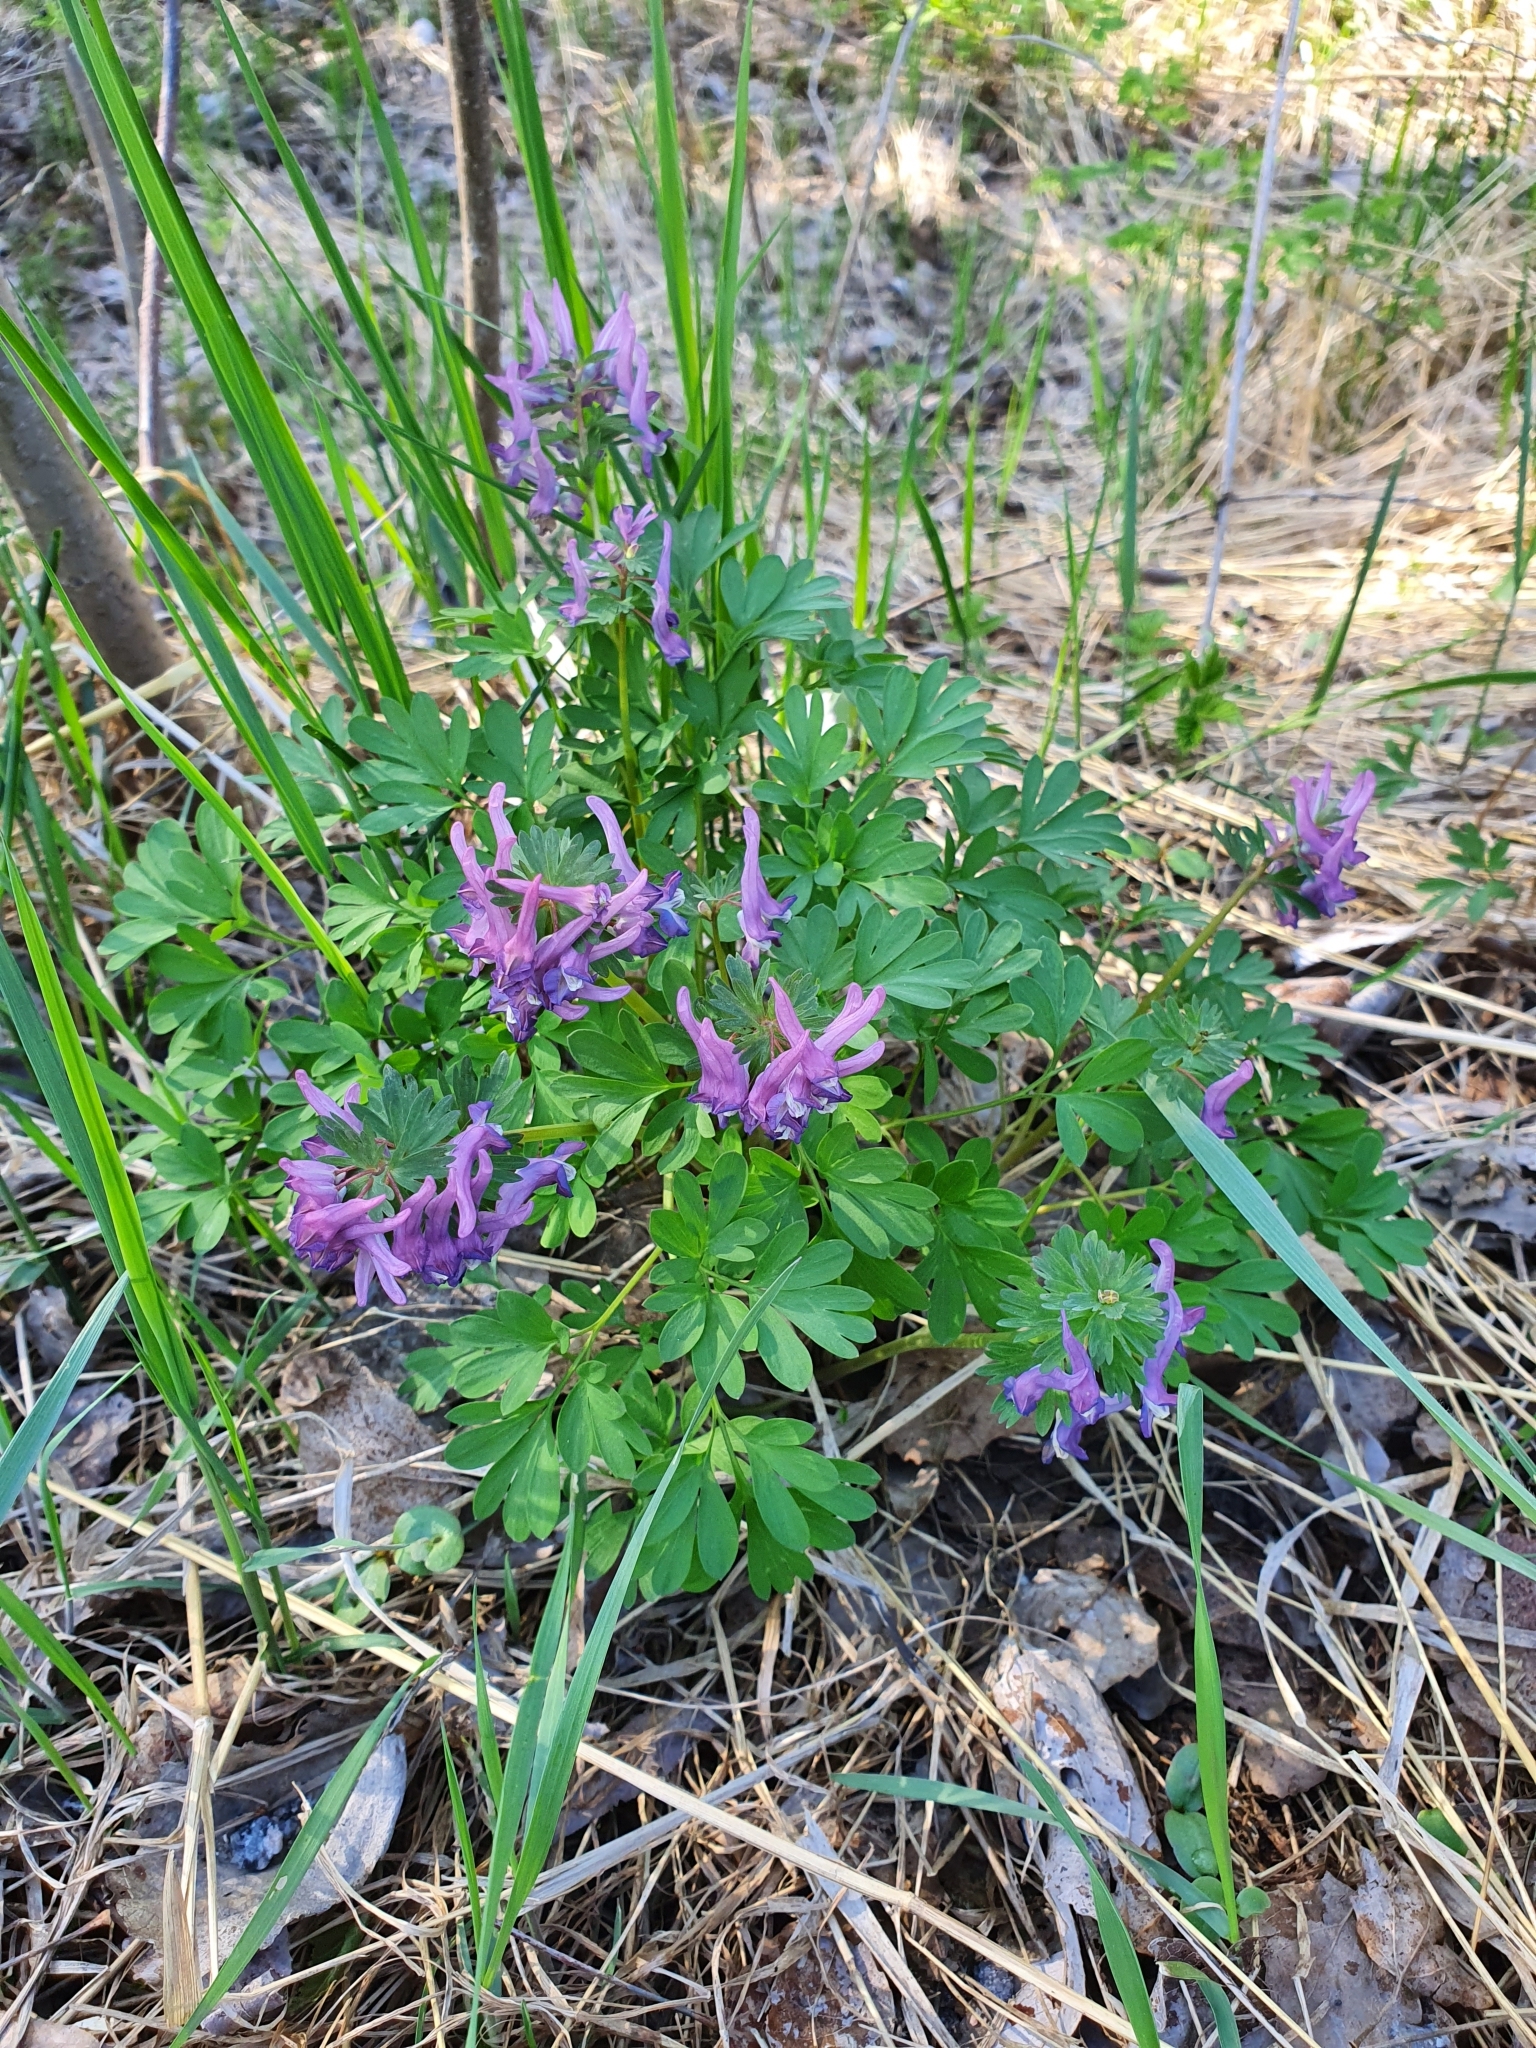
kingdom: Plantae
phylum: Tracheophyta
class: Magnoliopsida
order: Ranunculales
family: Papaveraceae
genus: Corydalis
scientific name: Corydalis solida
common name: Bird-in-a-bush
